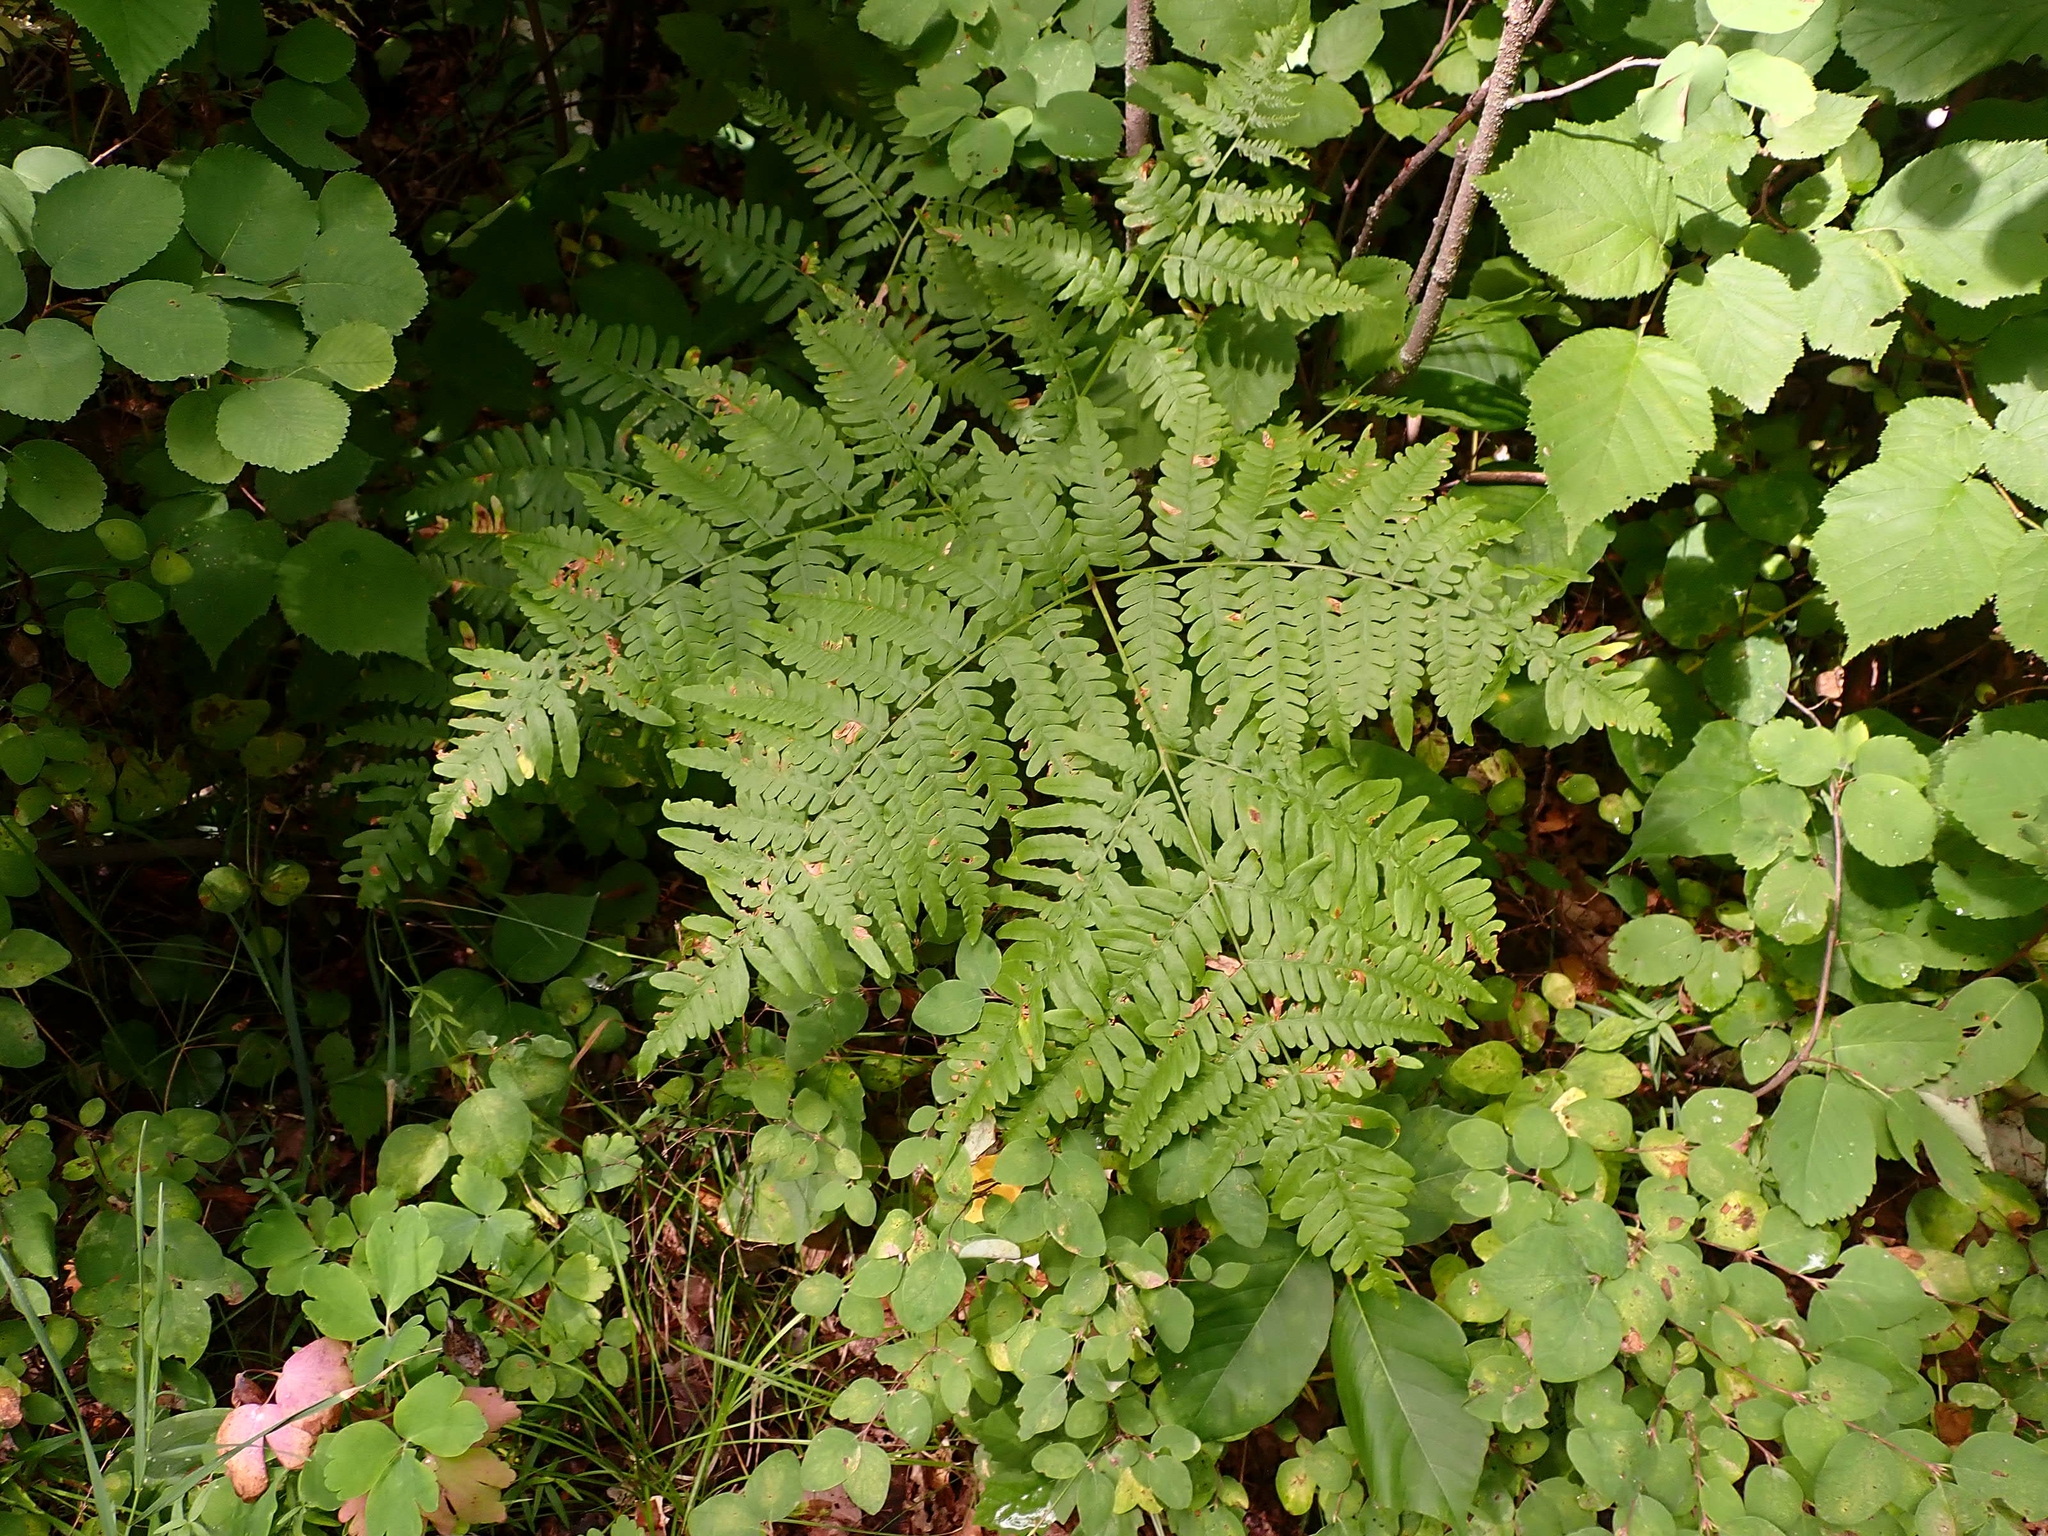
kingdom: Plantae
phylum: Tracheophyta
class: Polypodiopsida
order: Polypodiales
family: Dennstaedtiaceae
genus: Pteridium
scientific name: Pteridium aquilinum
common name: Bracken
